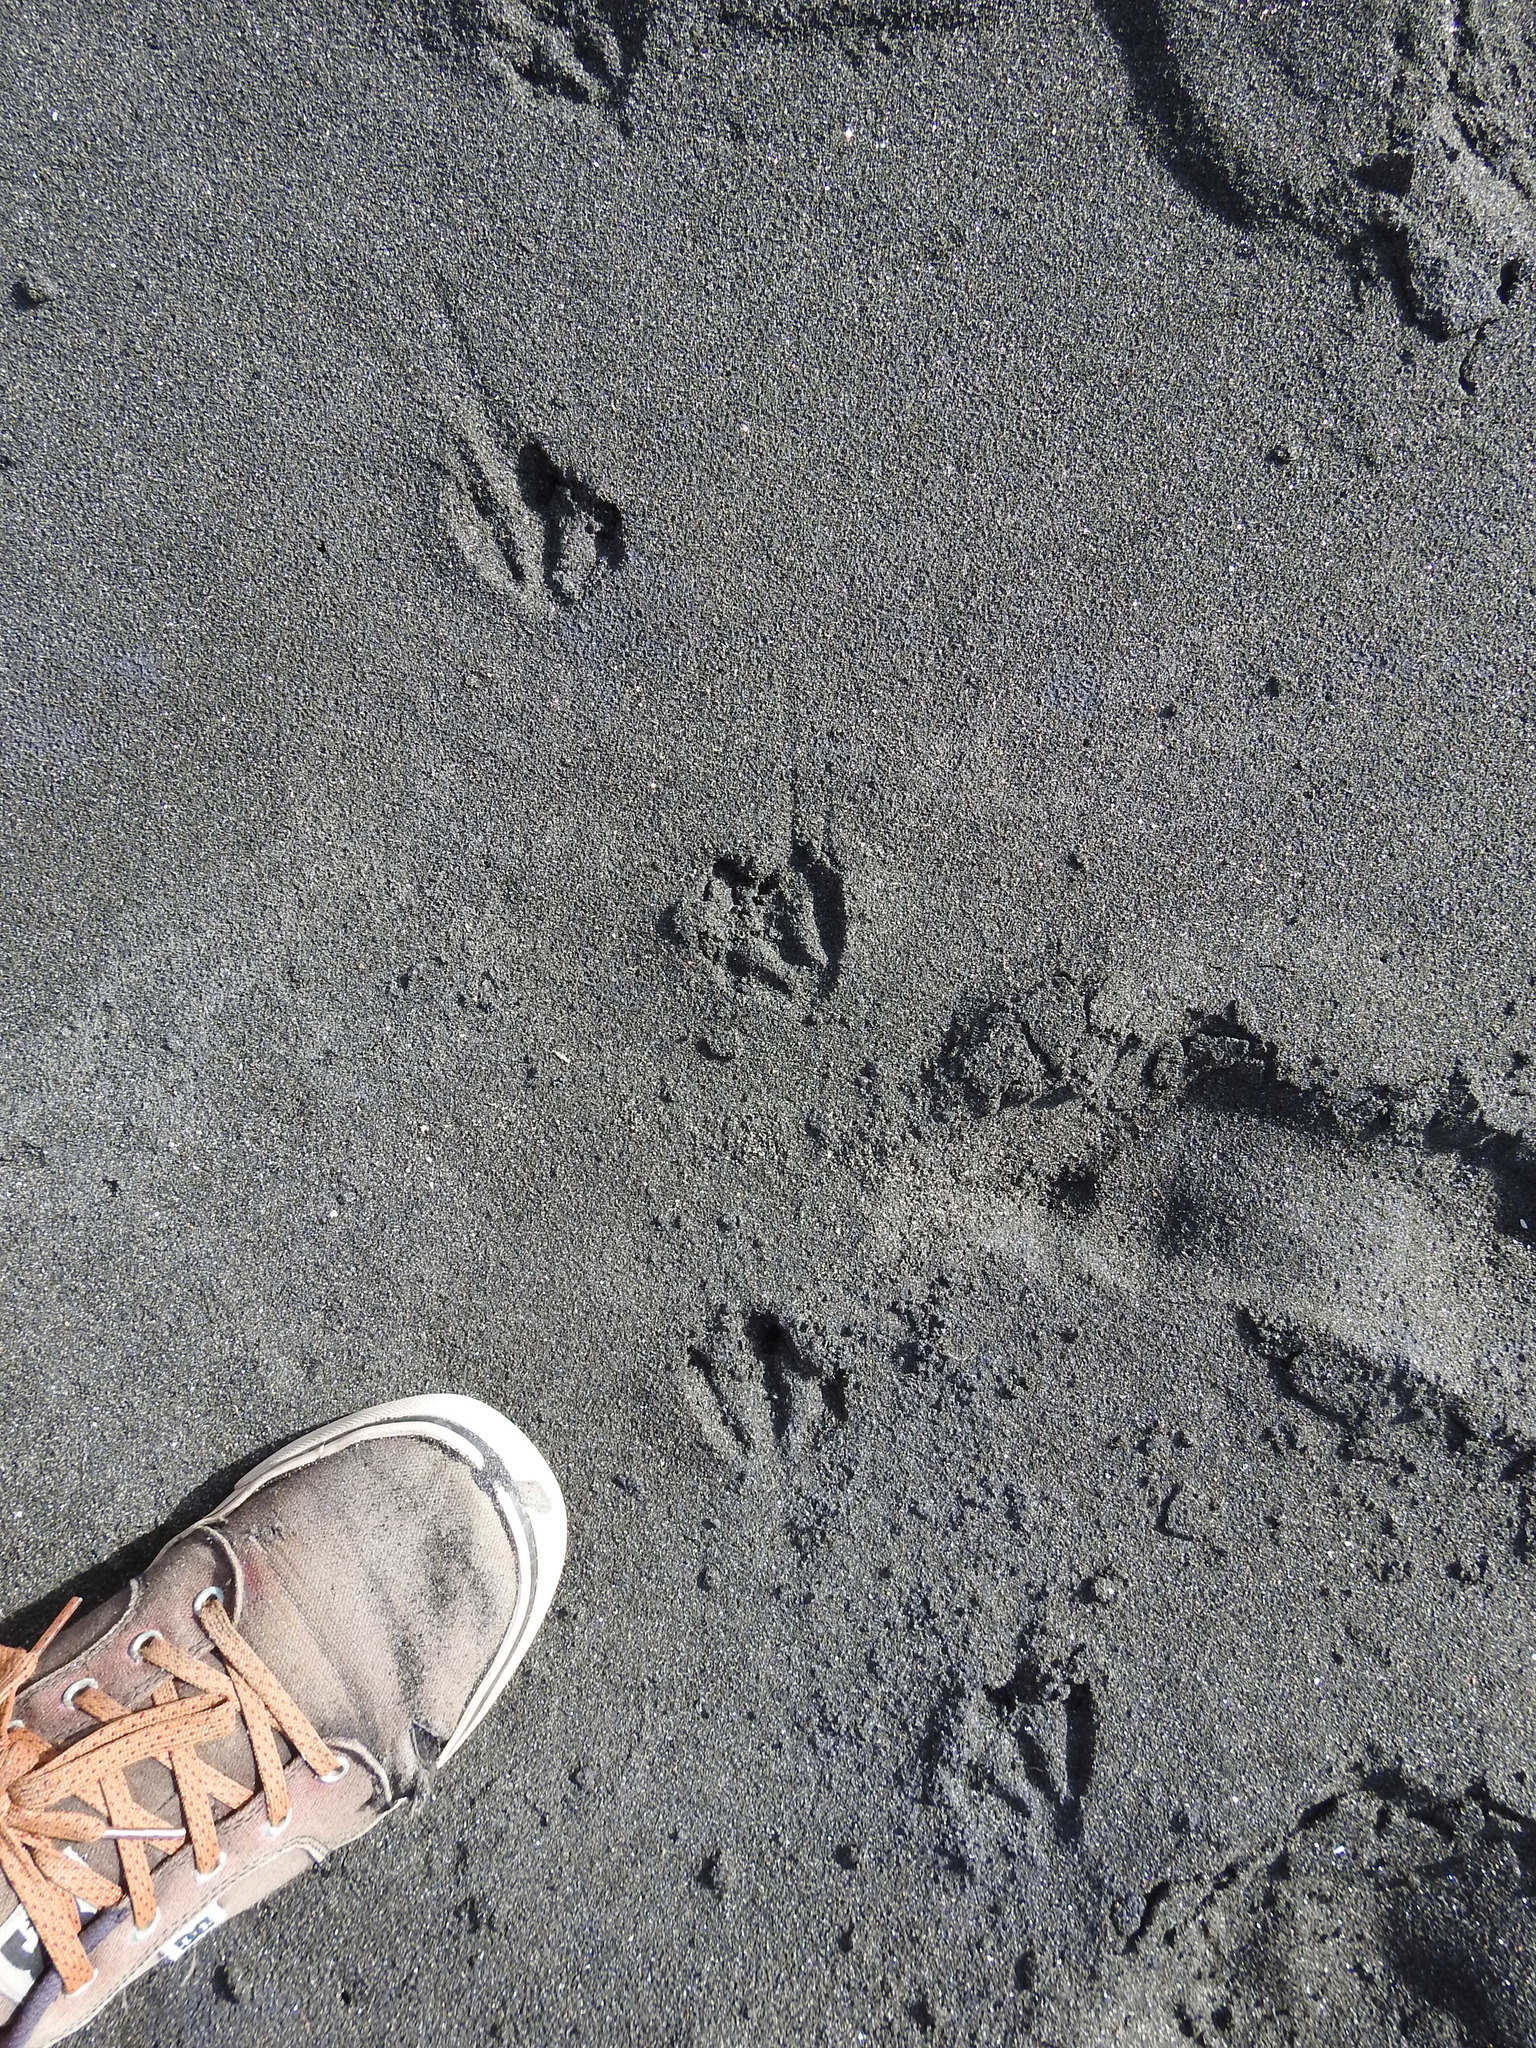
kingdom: Animalia
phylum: Chordata
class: Aves
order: Sphenisciformes
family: Spheniscidae
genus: Eudyptula
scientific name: Eudyptula minor
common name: Little penguin
